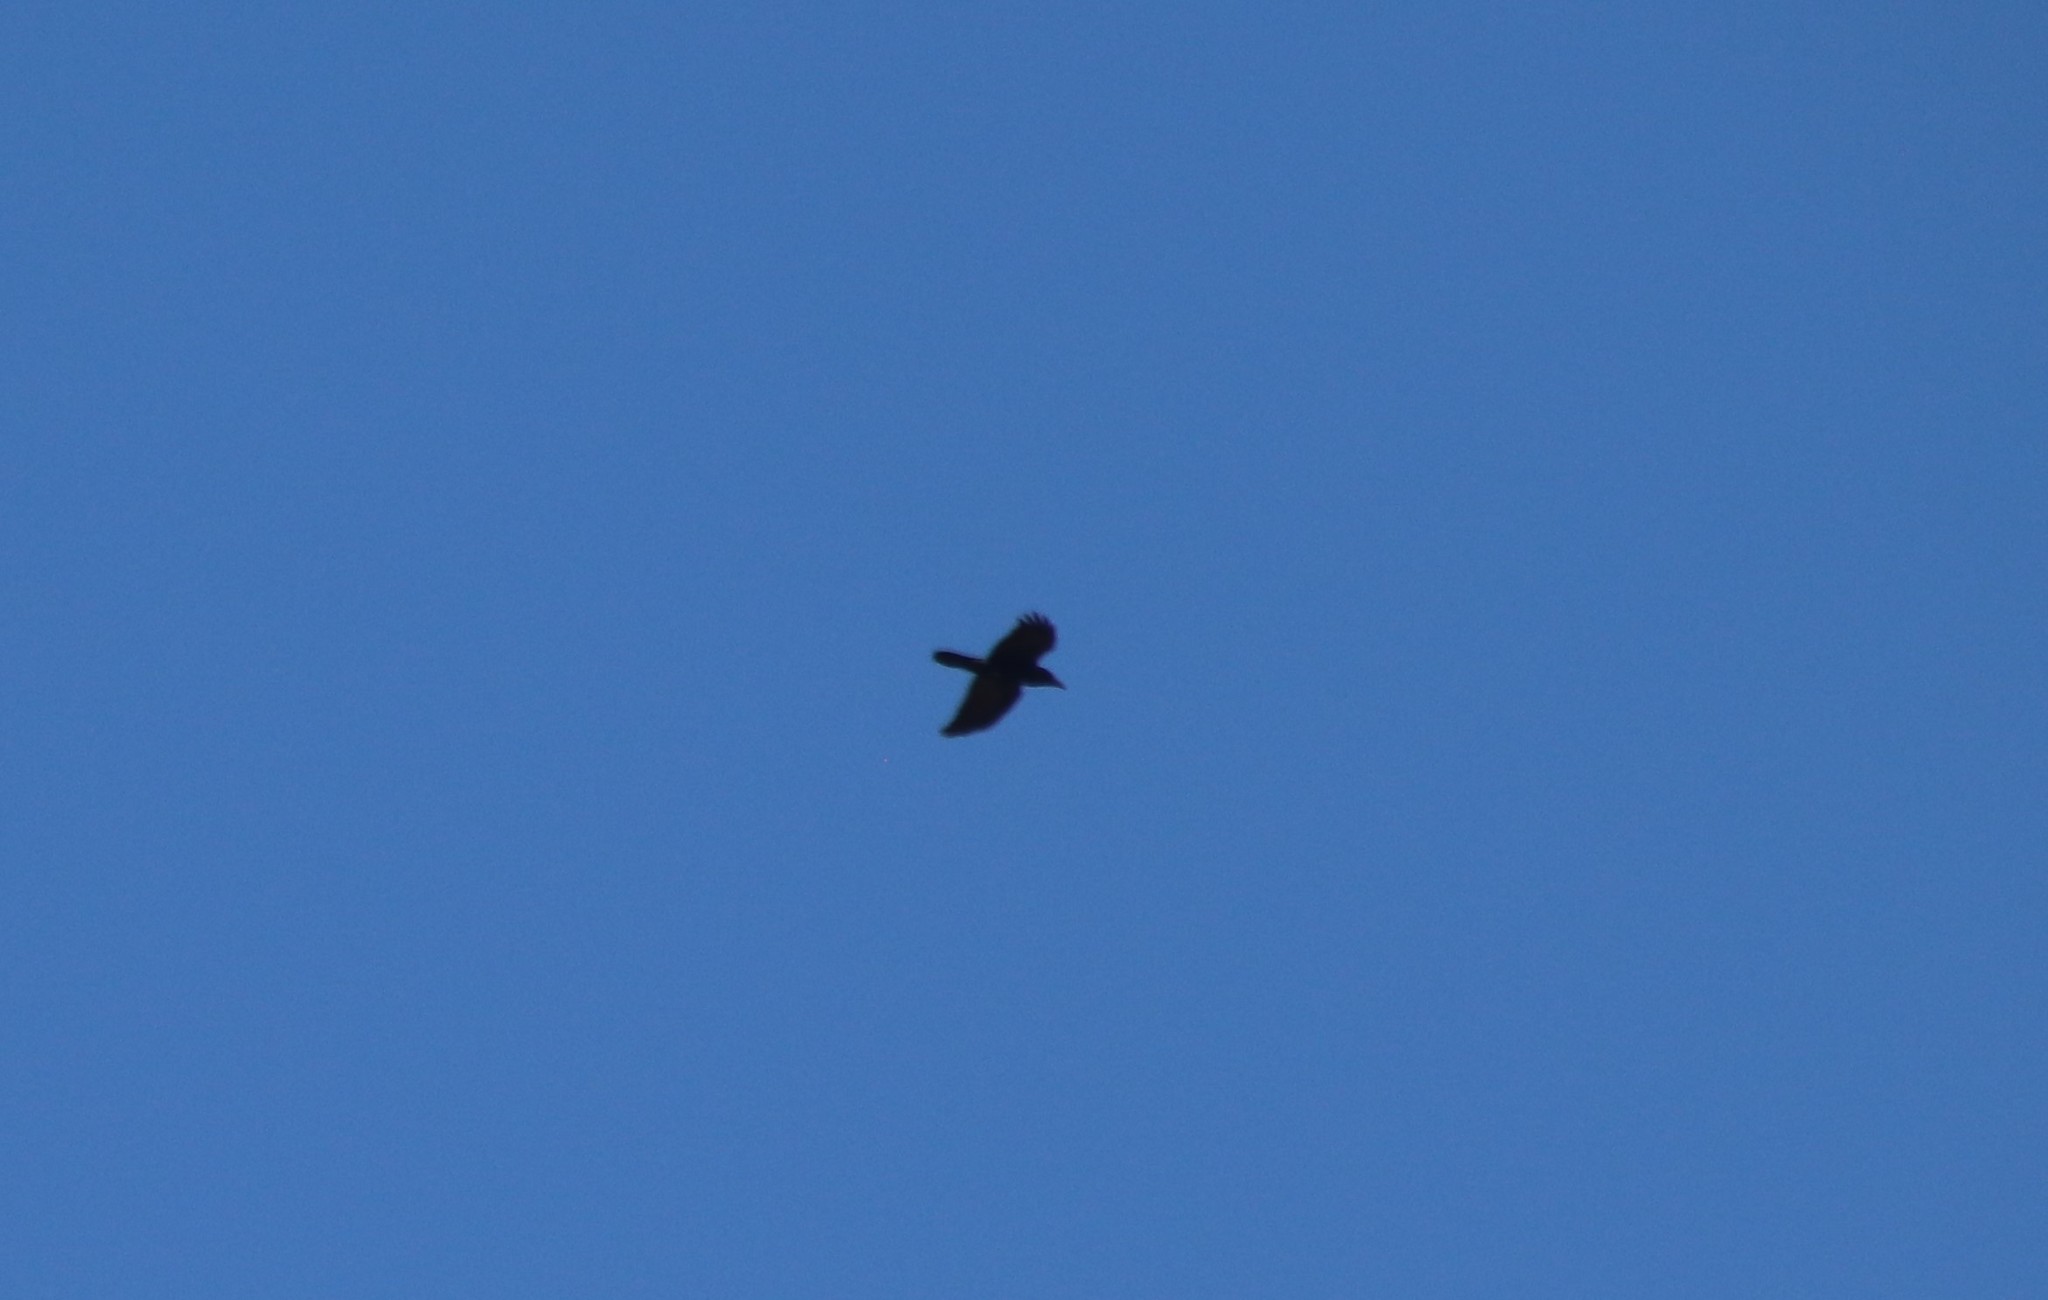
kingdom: Animalia
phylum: Chordata
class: Aves
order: Passeriformes
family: Corvidae
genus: Corvus
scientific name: Corvus corax
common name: Common raven
